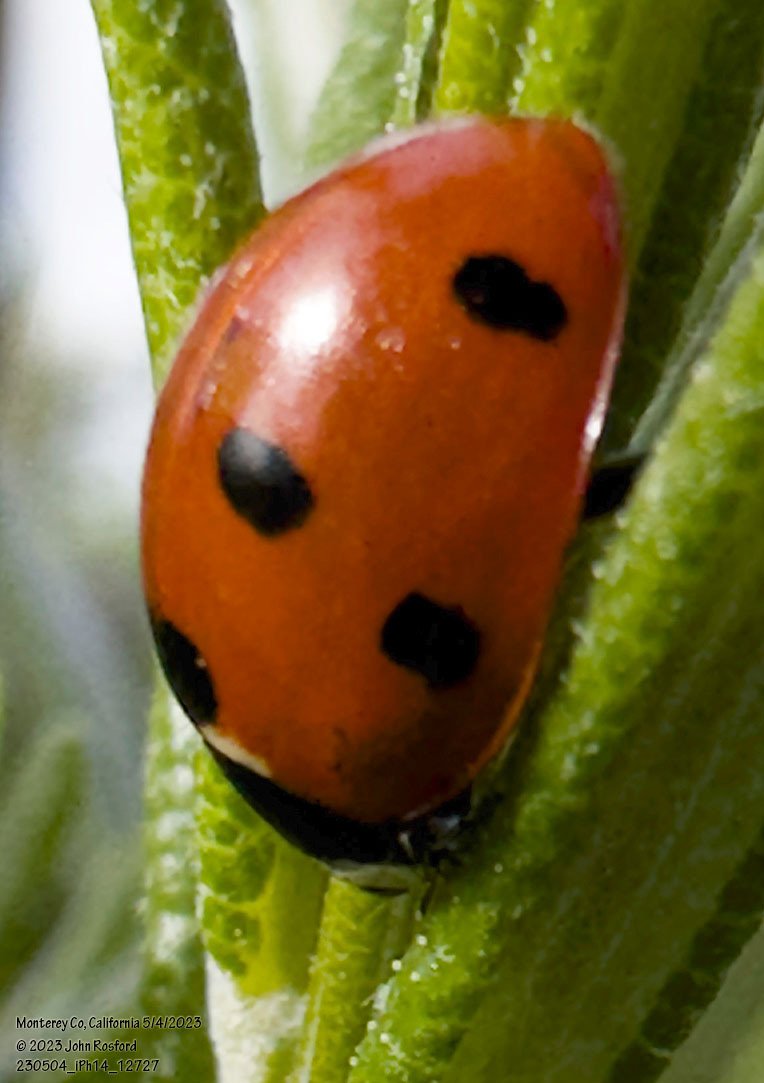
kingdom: Animalia
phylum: Arthropoda
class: Insecta
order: Coleoptera
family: Coccinellidae
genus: Coccinella
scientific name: Coccinella septempunctata
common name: Sevenspotted lady beetle
